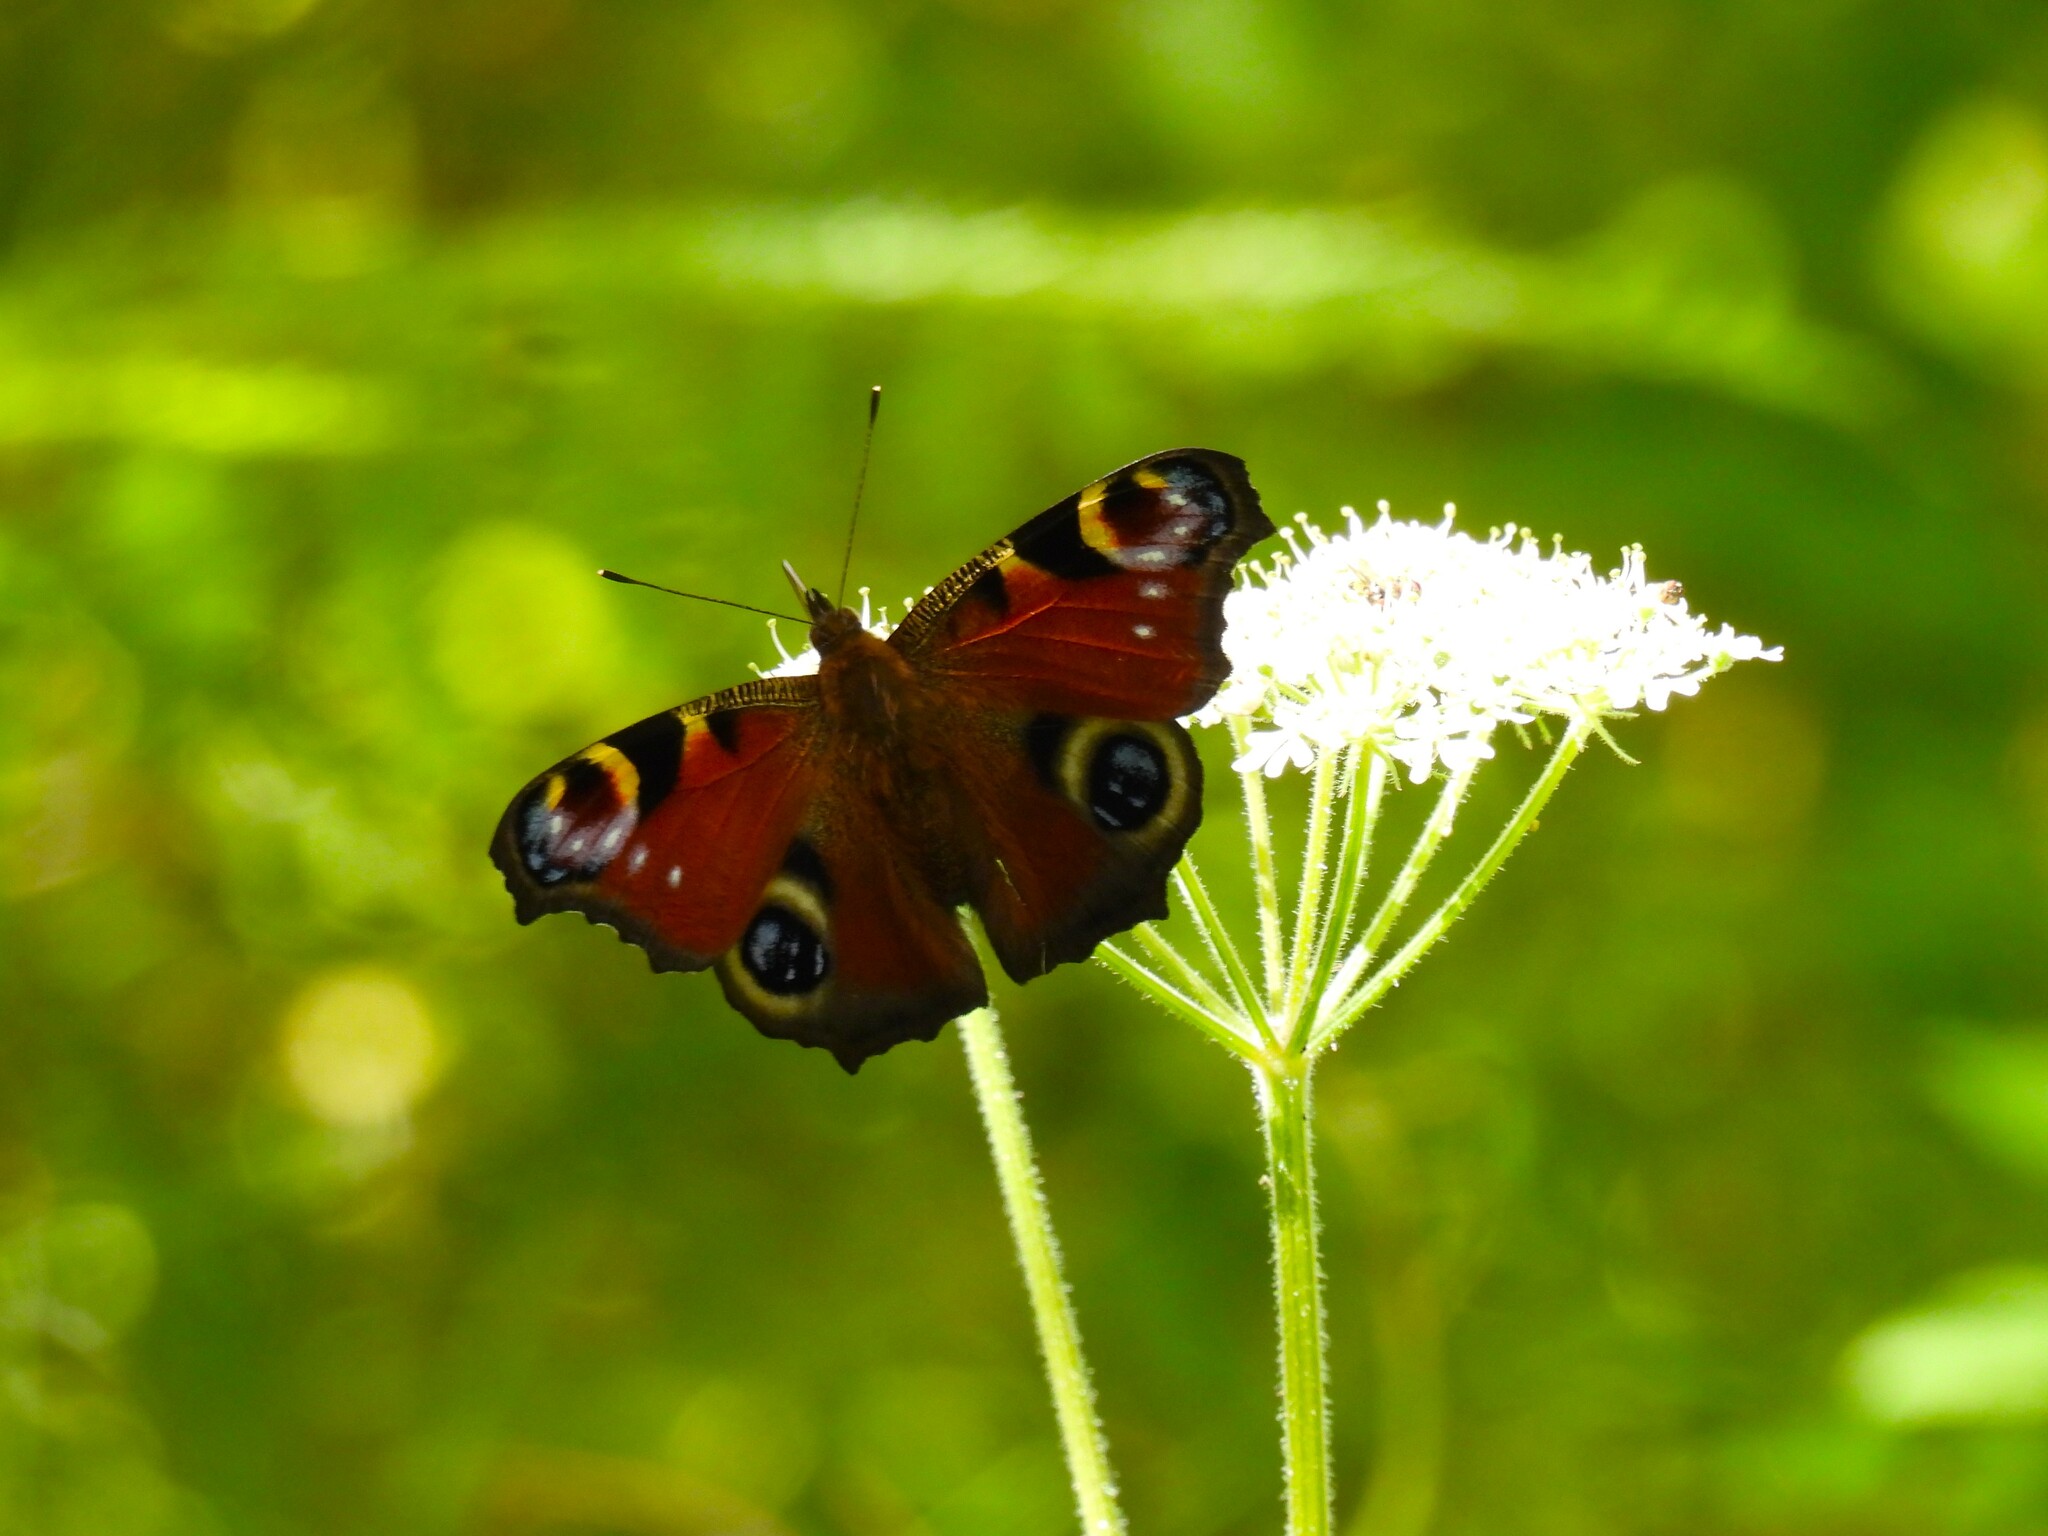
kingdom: Animalia
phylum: Arthropoda
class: Insecta
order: Lepidoptera
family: Nymphalidae
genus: Aglais
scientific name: Aglais io
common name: Peacock
